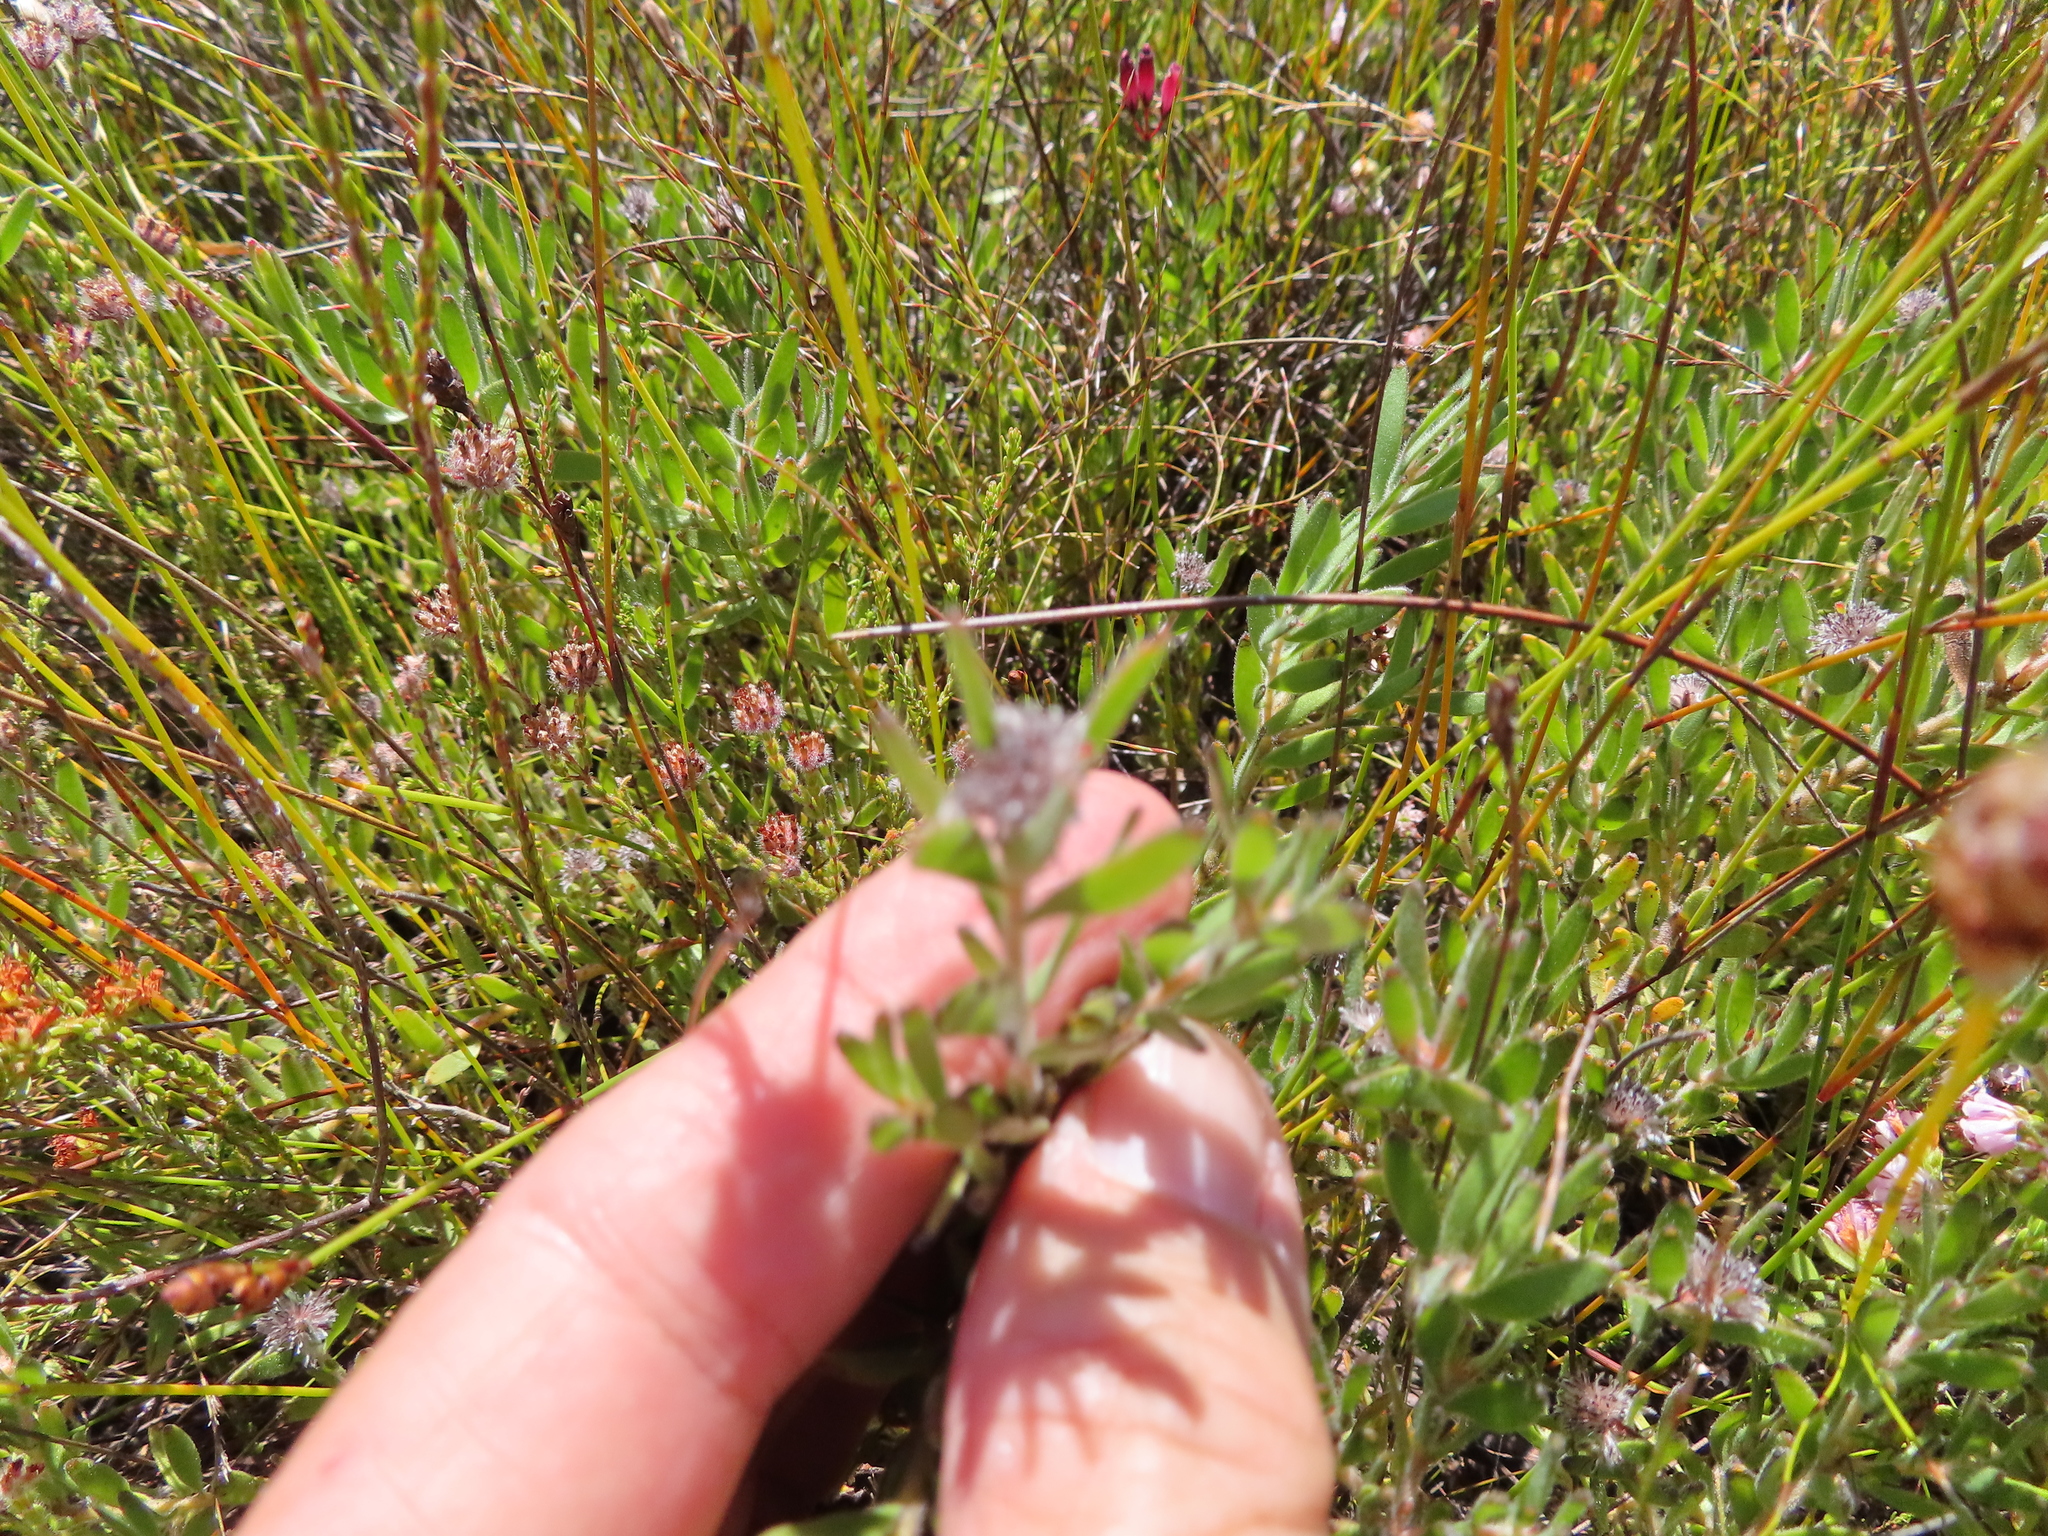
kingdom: Plantae
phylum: Tracheophyta
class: Magnoliopsida
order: Proteales
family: Proteaceae
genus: Diastella
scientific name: Diastella divaricata
